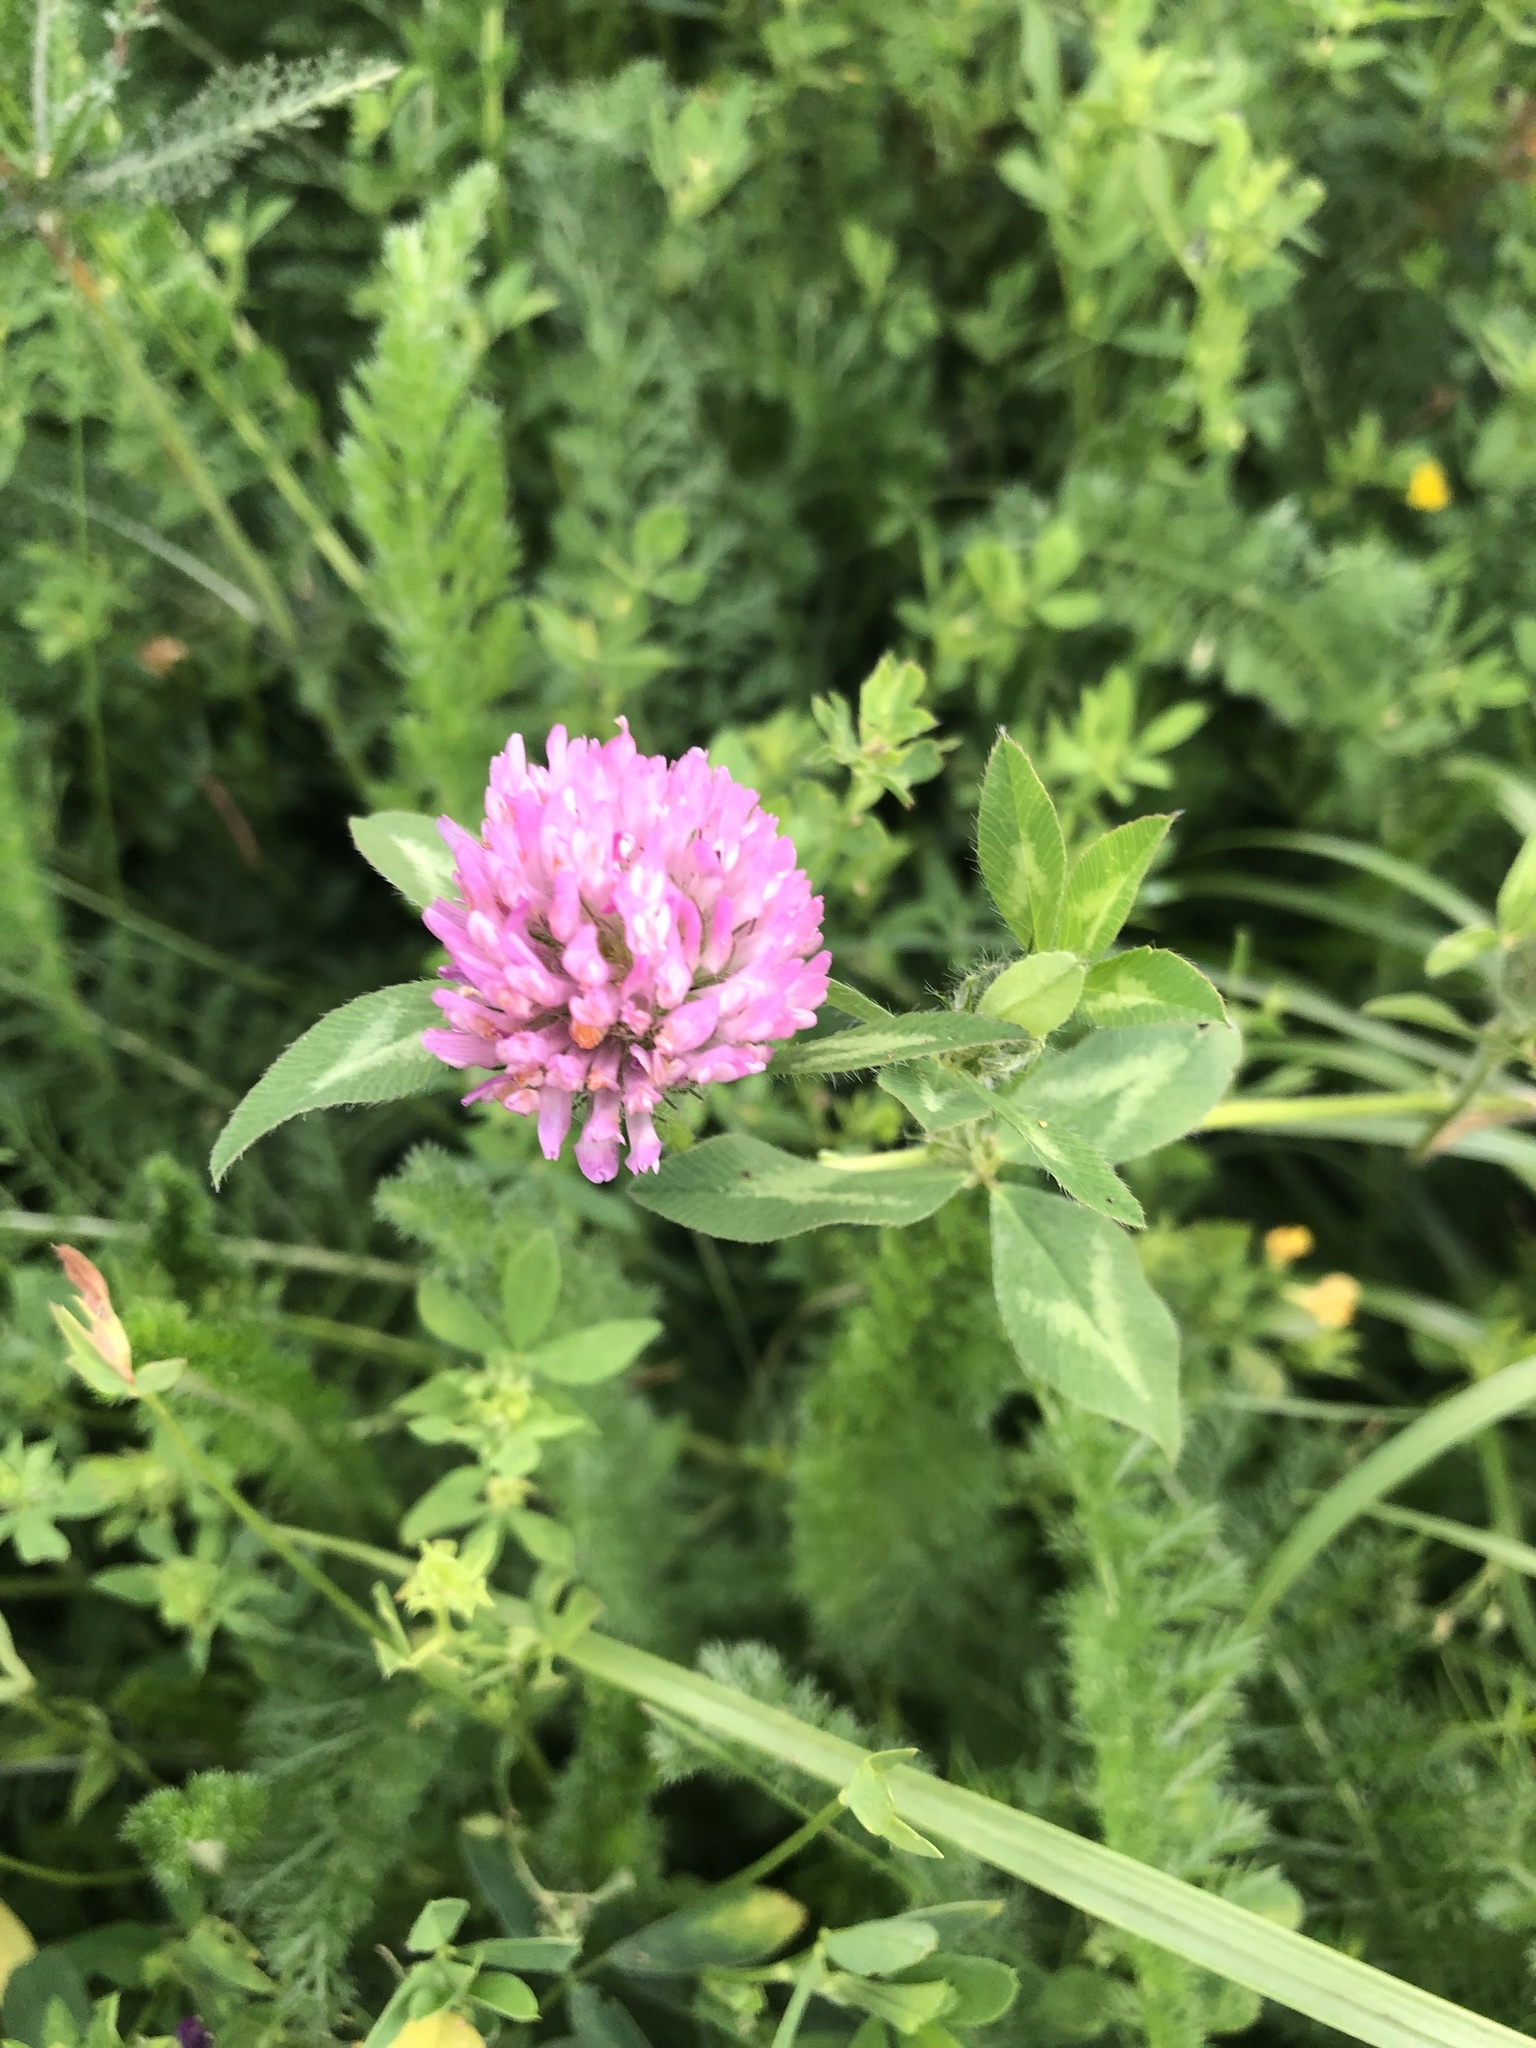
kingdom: Plantae
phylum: Tracheophyta
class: Magnoliopsida
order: Fabales
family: Fabaceae
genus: Trifolium
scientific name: Trifolium pratense
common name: Red clover
